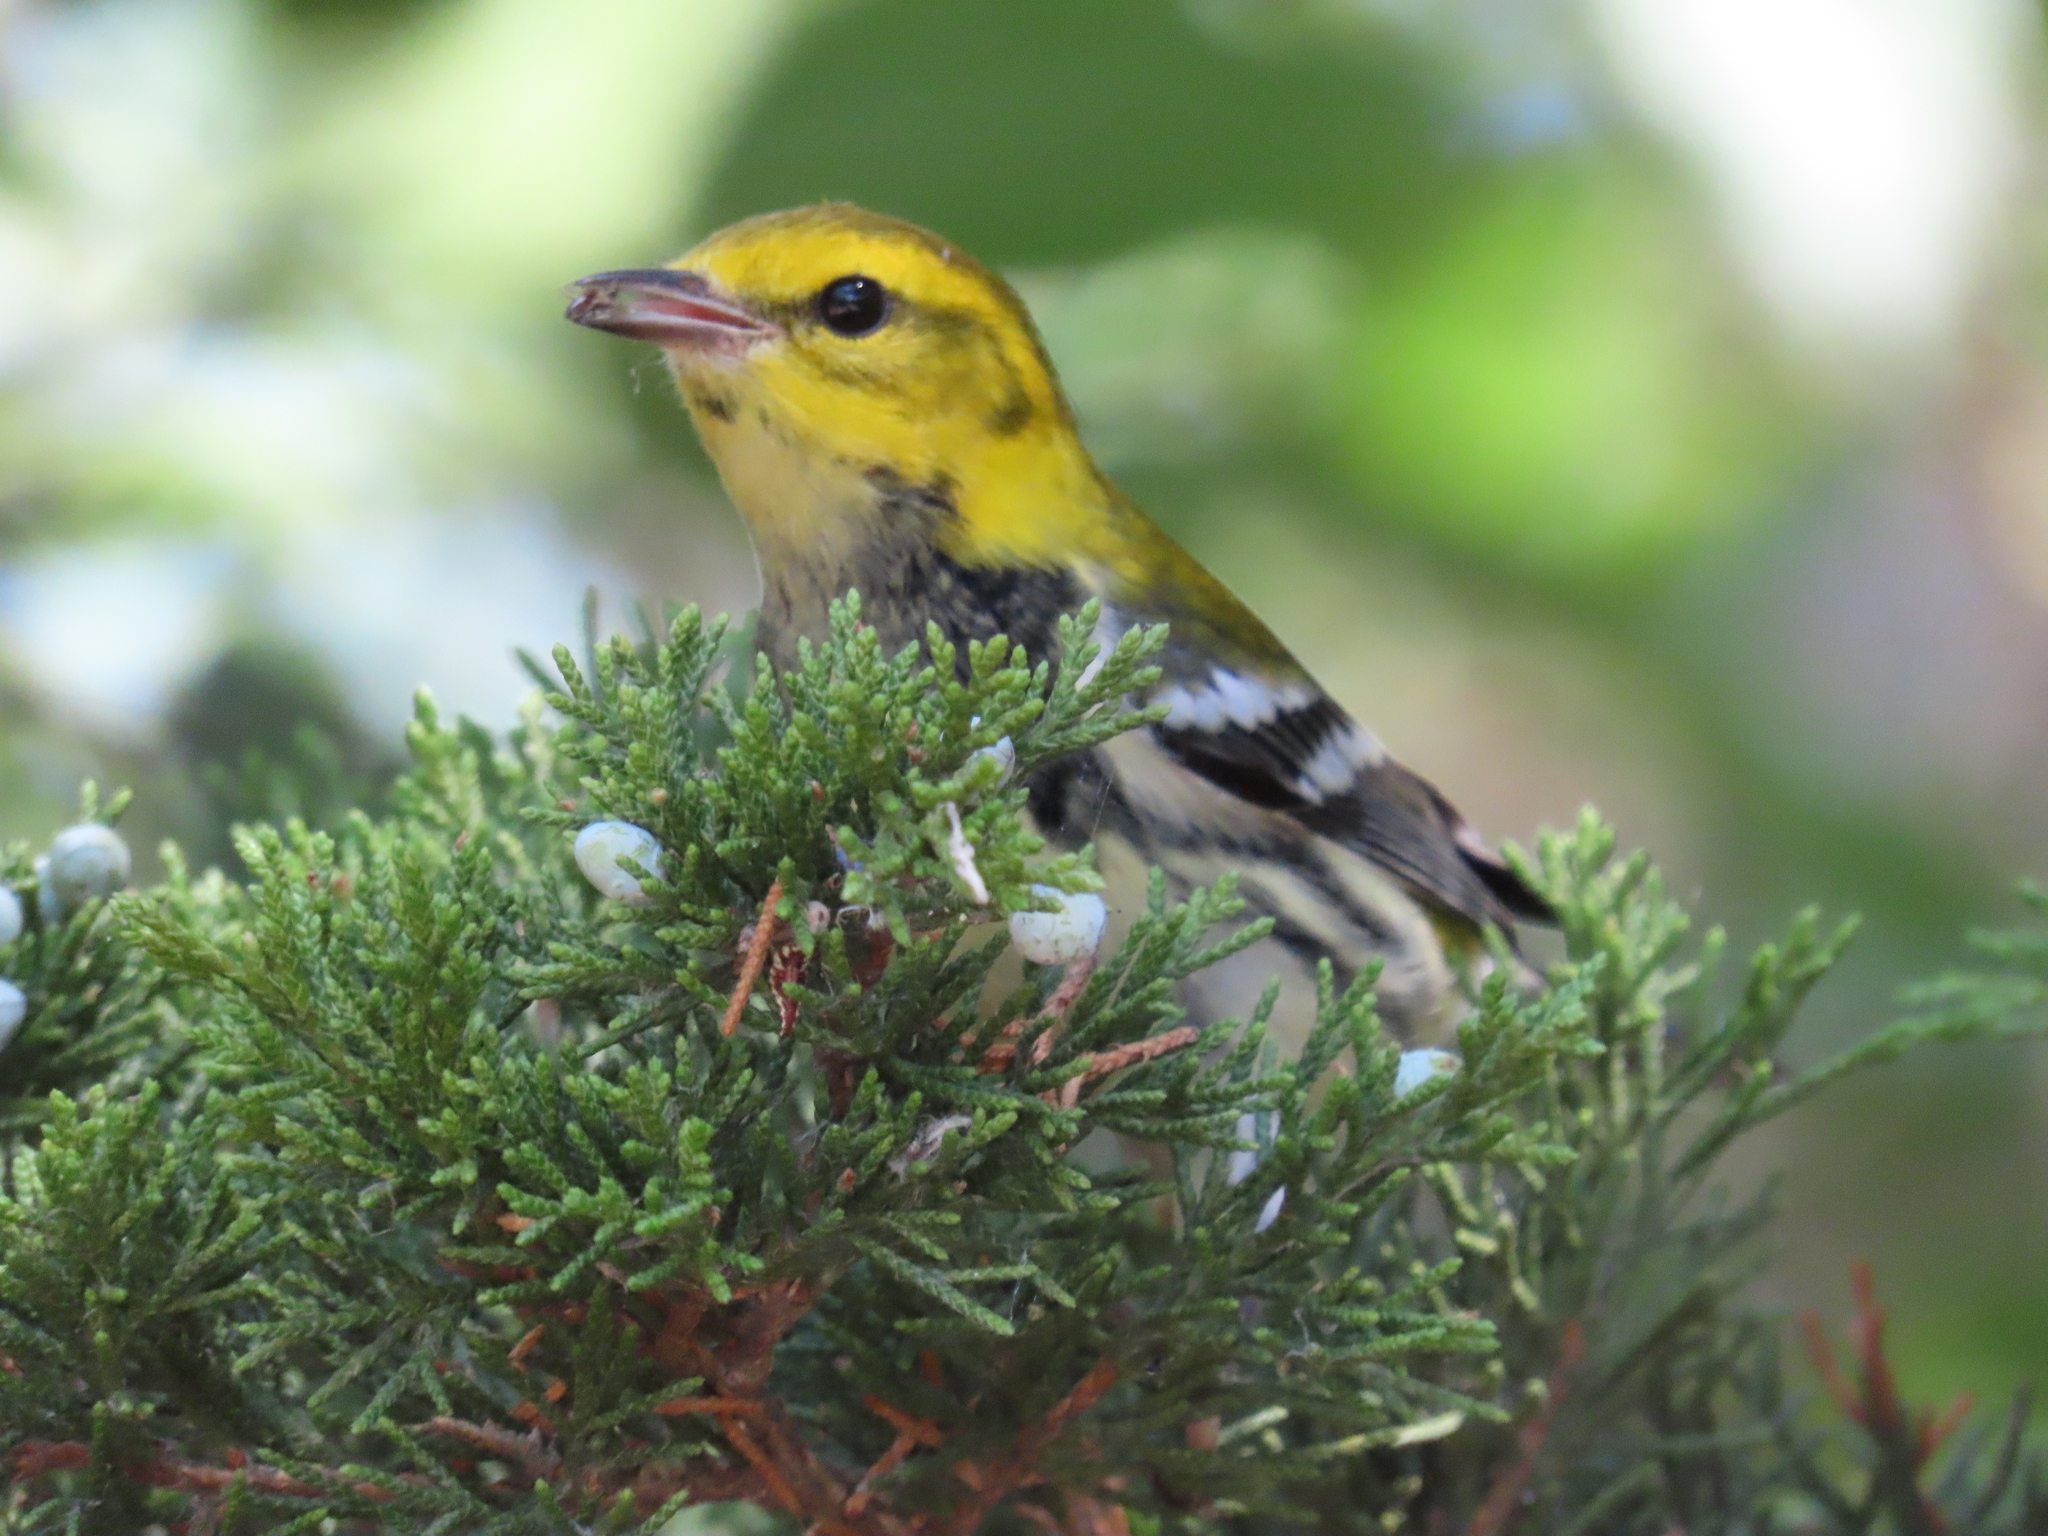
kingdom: Animalia
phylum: Chordata
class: Aves
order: Passeriformes
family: Parulidae
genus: Setophaga
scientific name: Setophaga virens
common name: Black-throated green warbler
